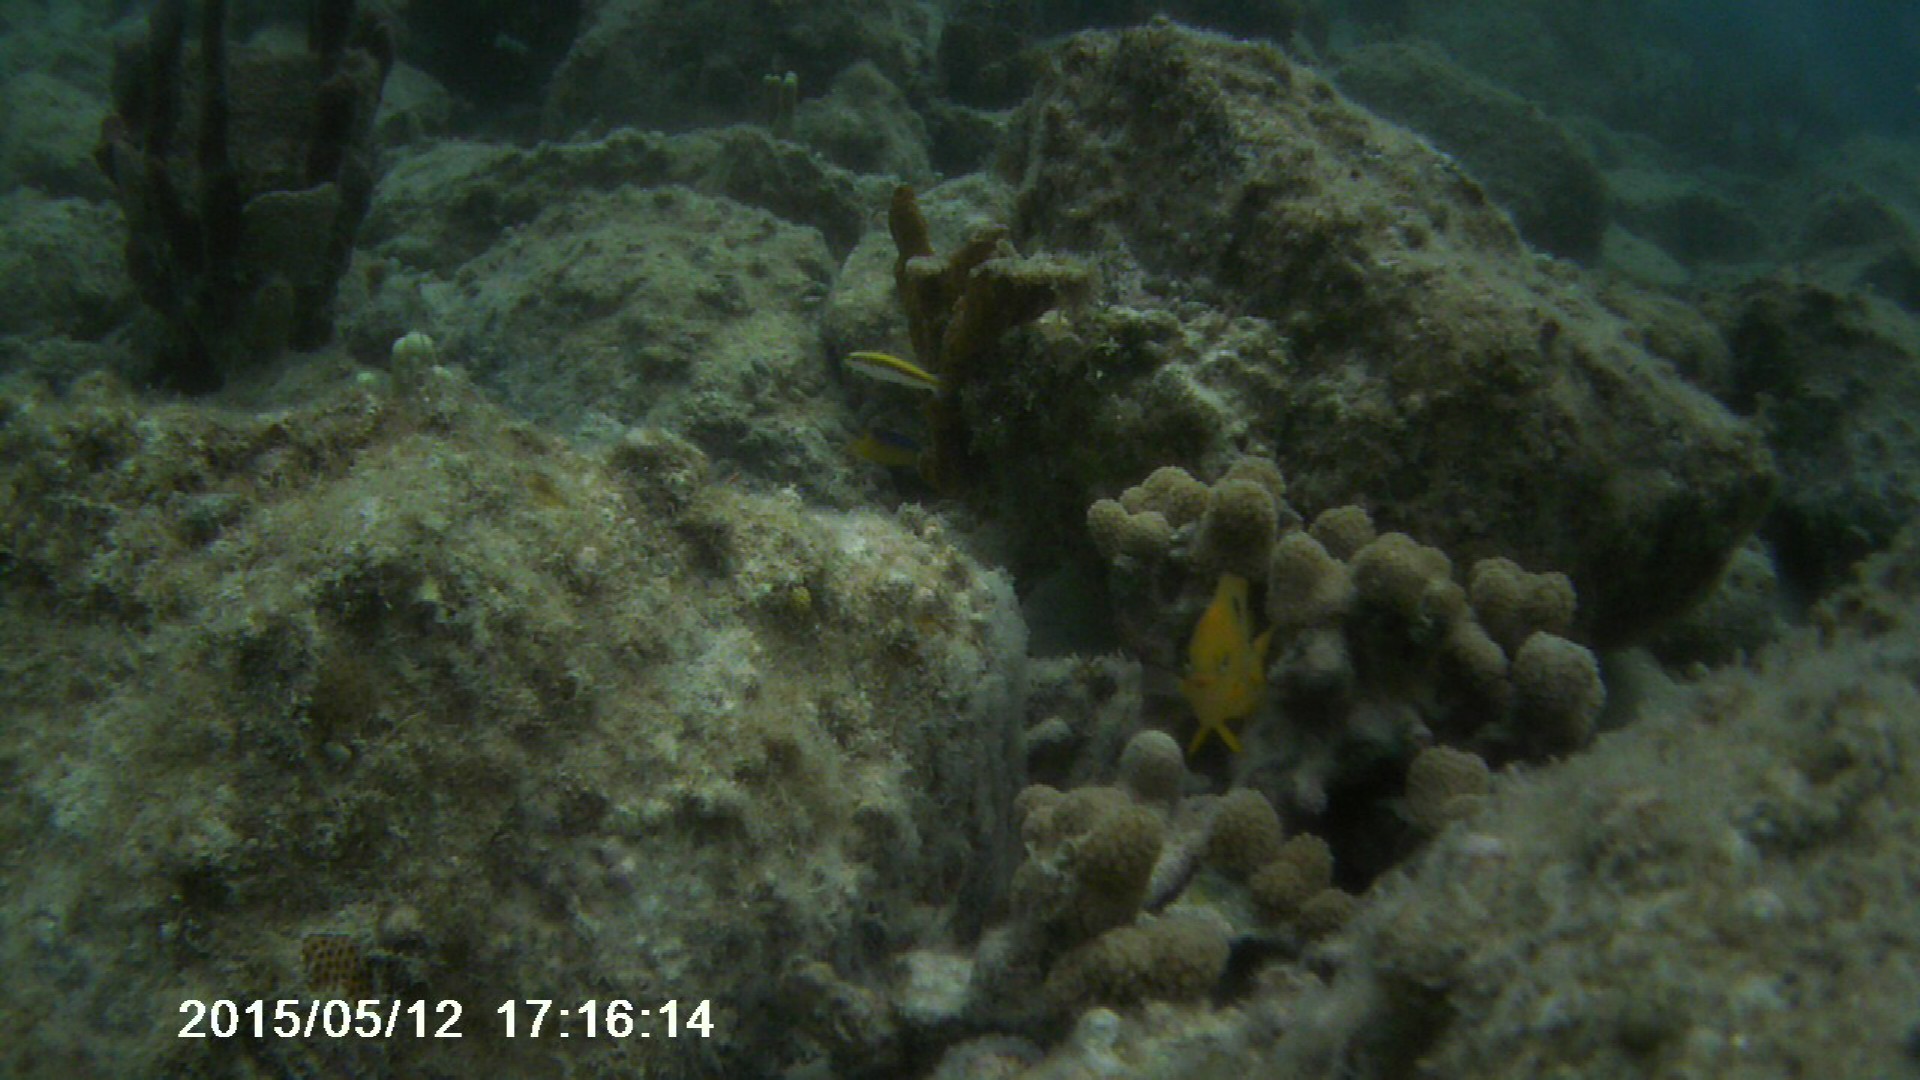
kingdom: Animalia
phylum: Chordata
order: Perciformes
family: Labridae
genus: Thalassoma
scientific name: Thalassoma bifasciatum
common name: Bluehead wrasse
